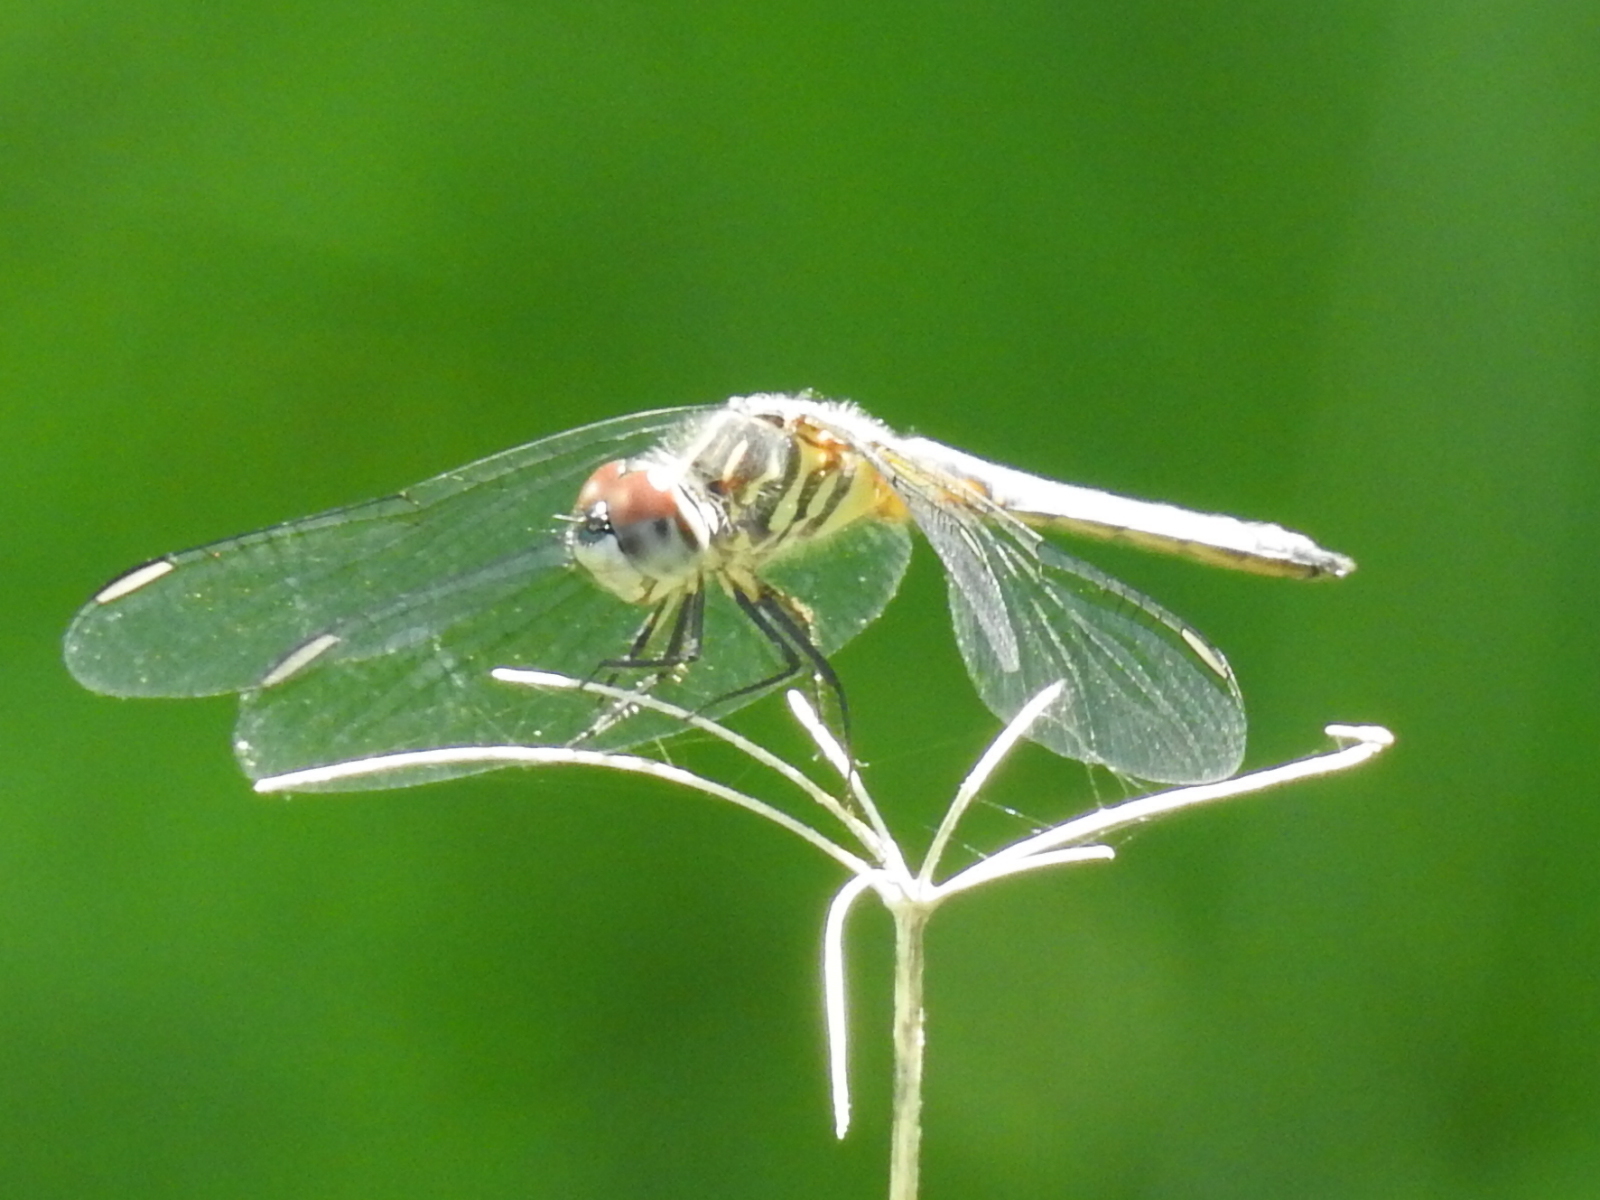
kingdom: Animalia
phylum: Arthropoda
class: Insecta
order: Odonata
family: Libellulidae
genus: Pachydiplax
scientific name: Pachydiplax longipennis
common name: Blue dasher
